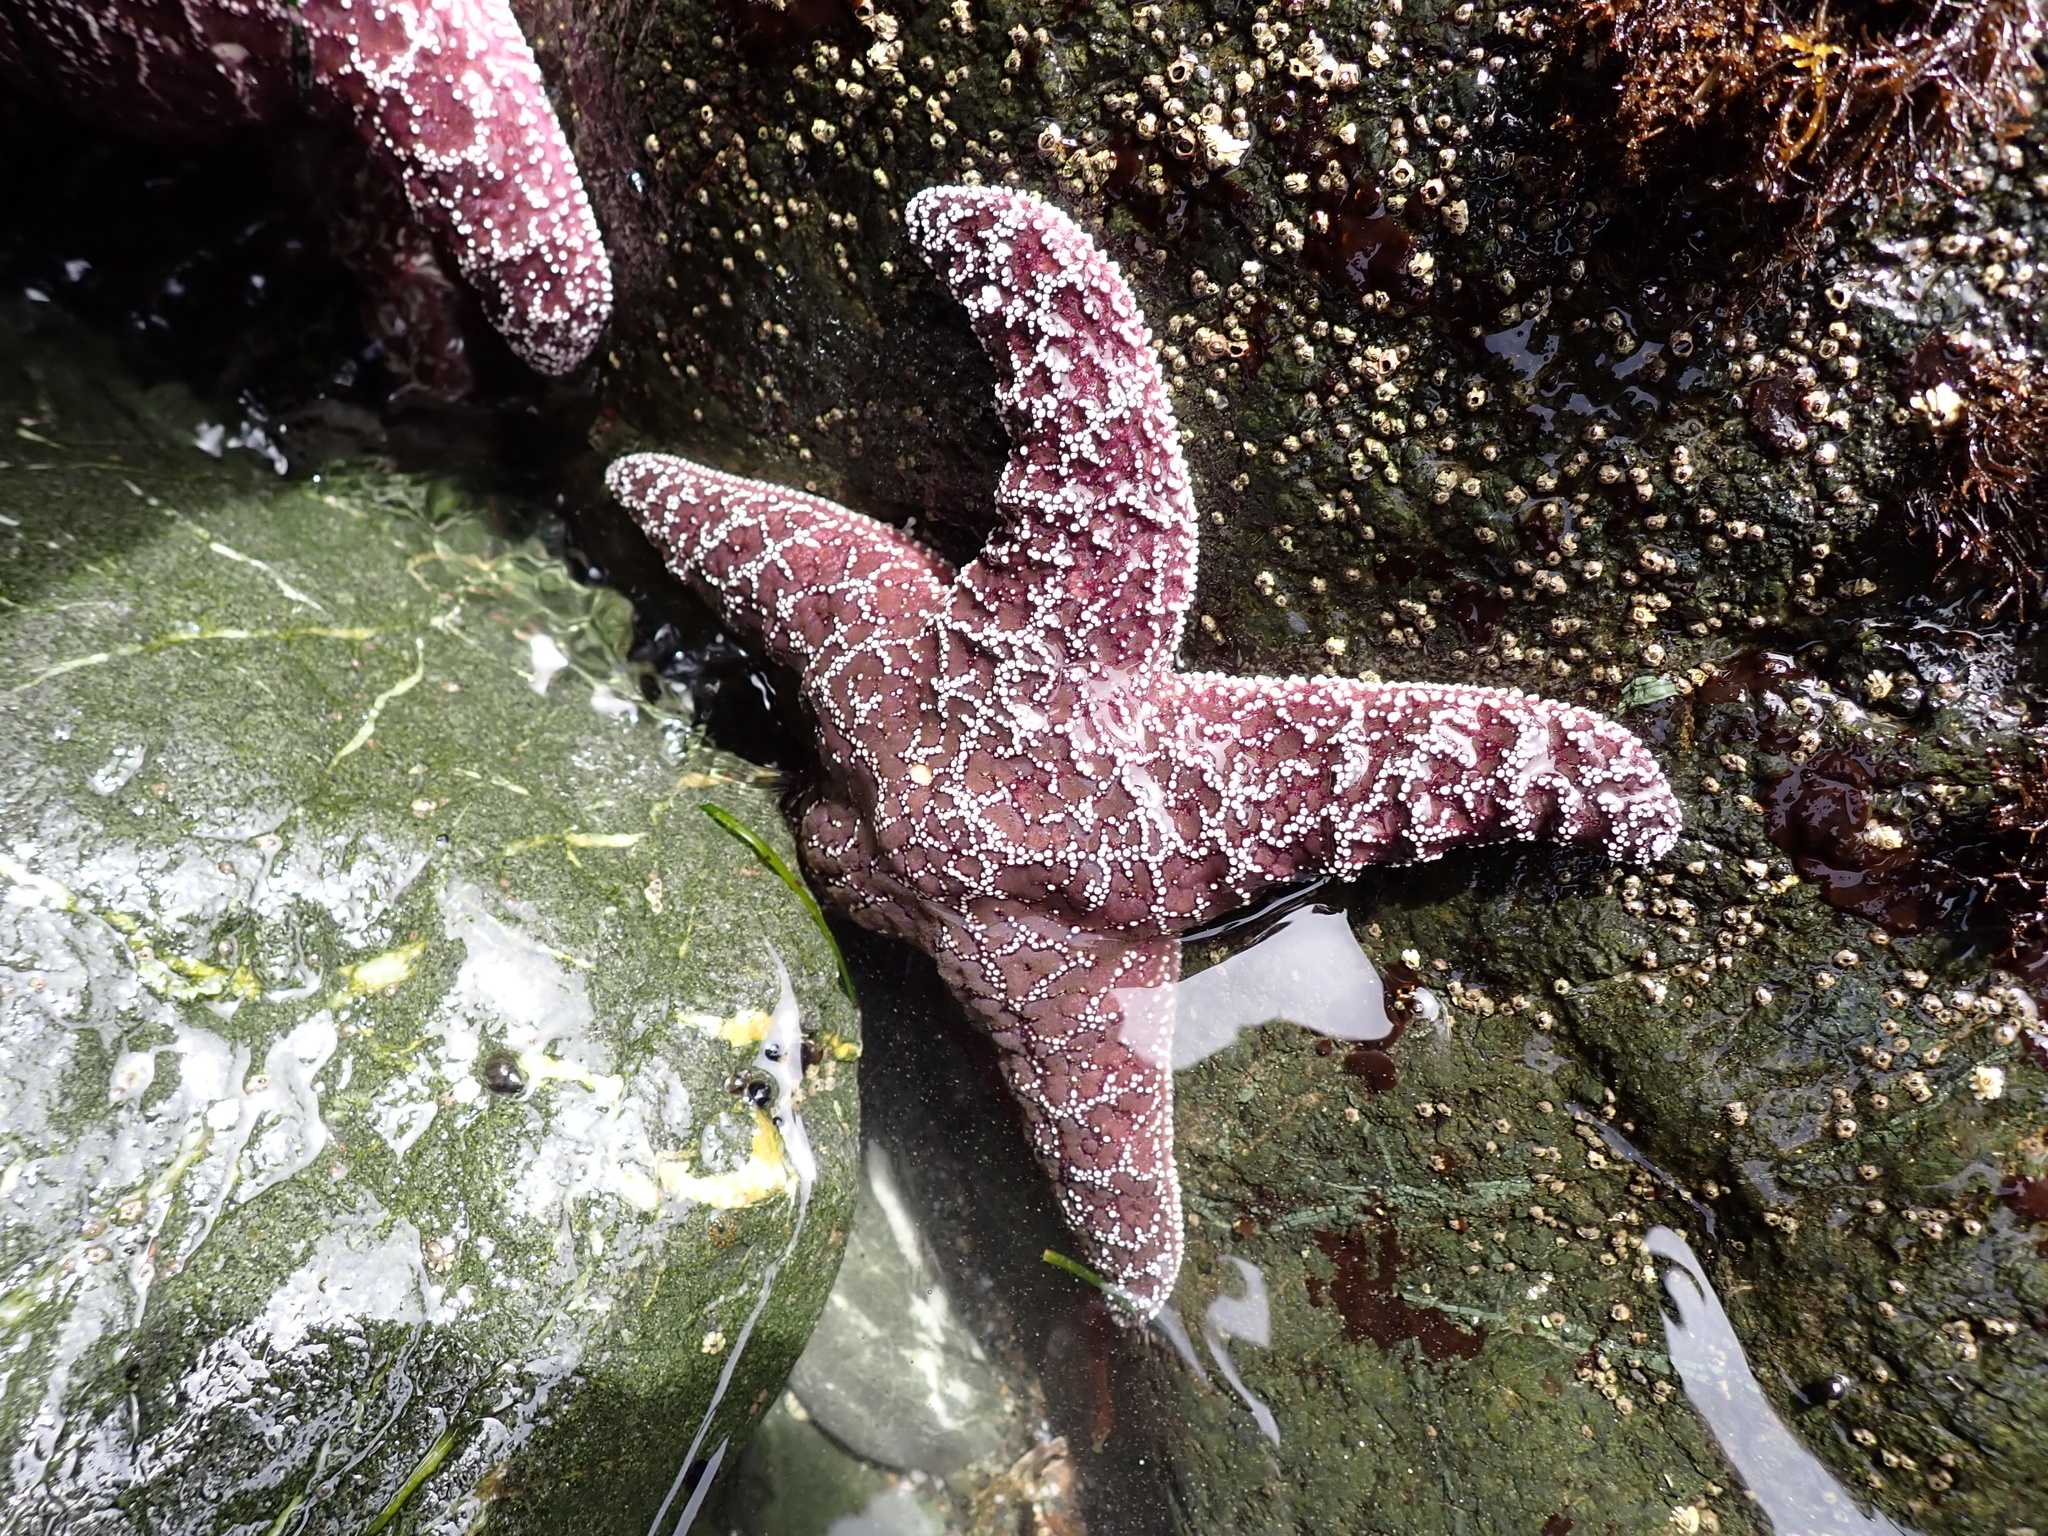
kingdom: Animalia
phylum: Echinodermata
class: Asteroidea
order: Forcipulatida
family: Asteriidae
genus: Pisaster
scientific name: Pisaster ochraceus
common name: Ochre stars
